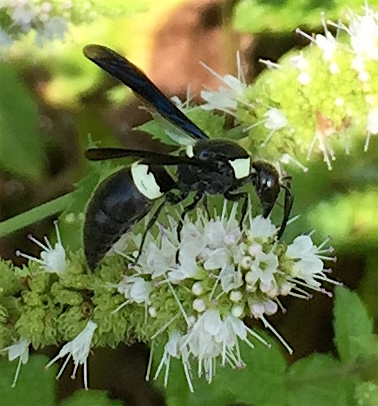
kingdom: Animalia
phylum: Arthropoda
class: Insecta
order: Hymenoptera
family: Eumenidae
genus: Monobia
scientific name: Monobia quadridens
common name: Four-toothed mason wasp
